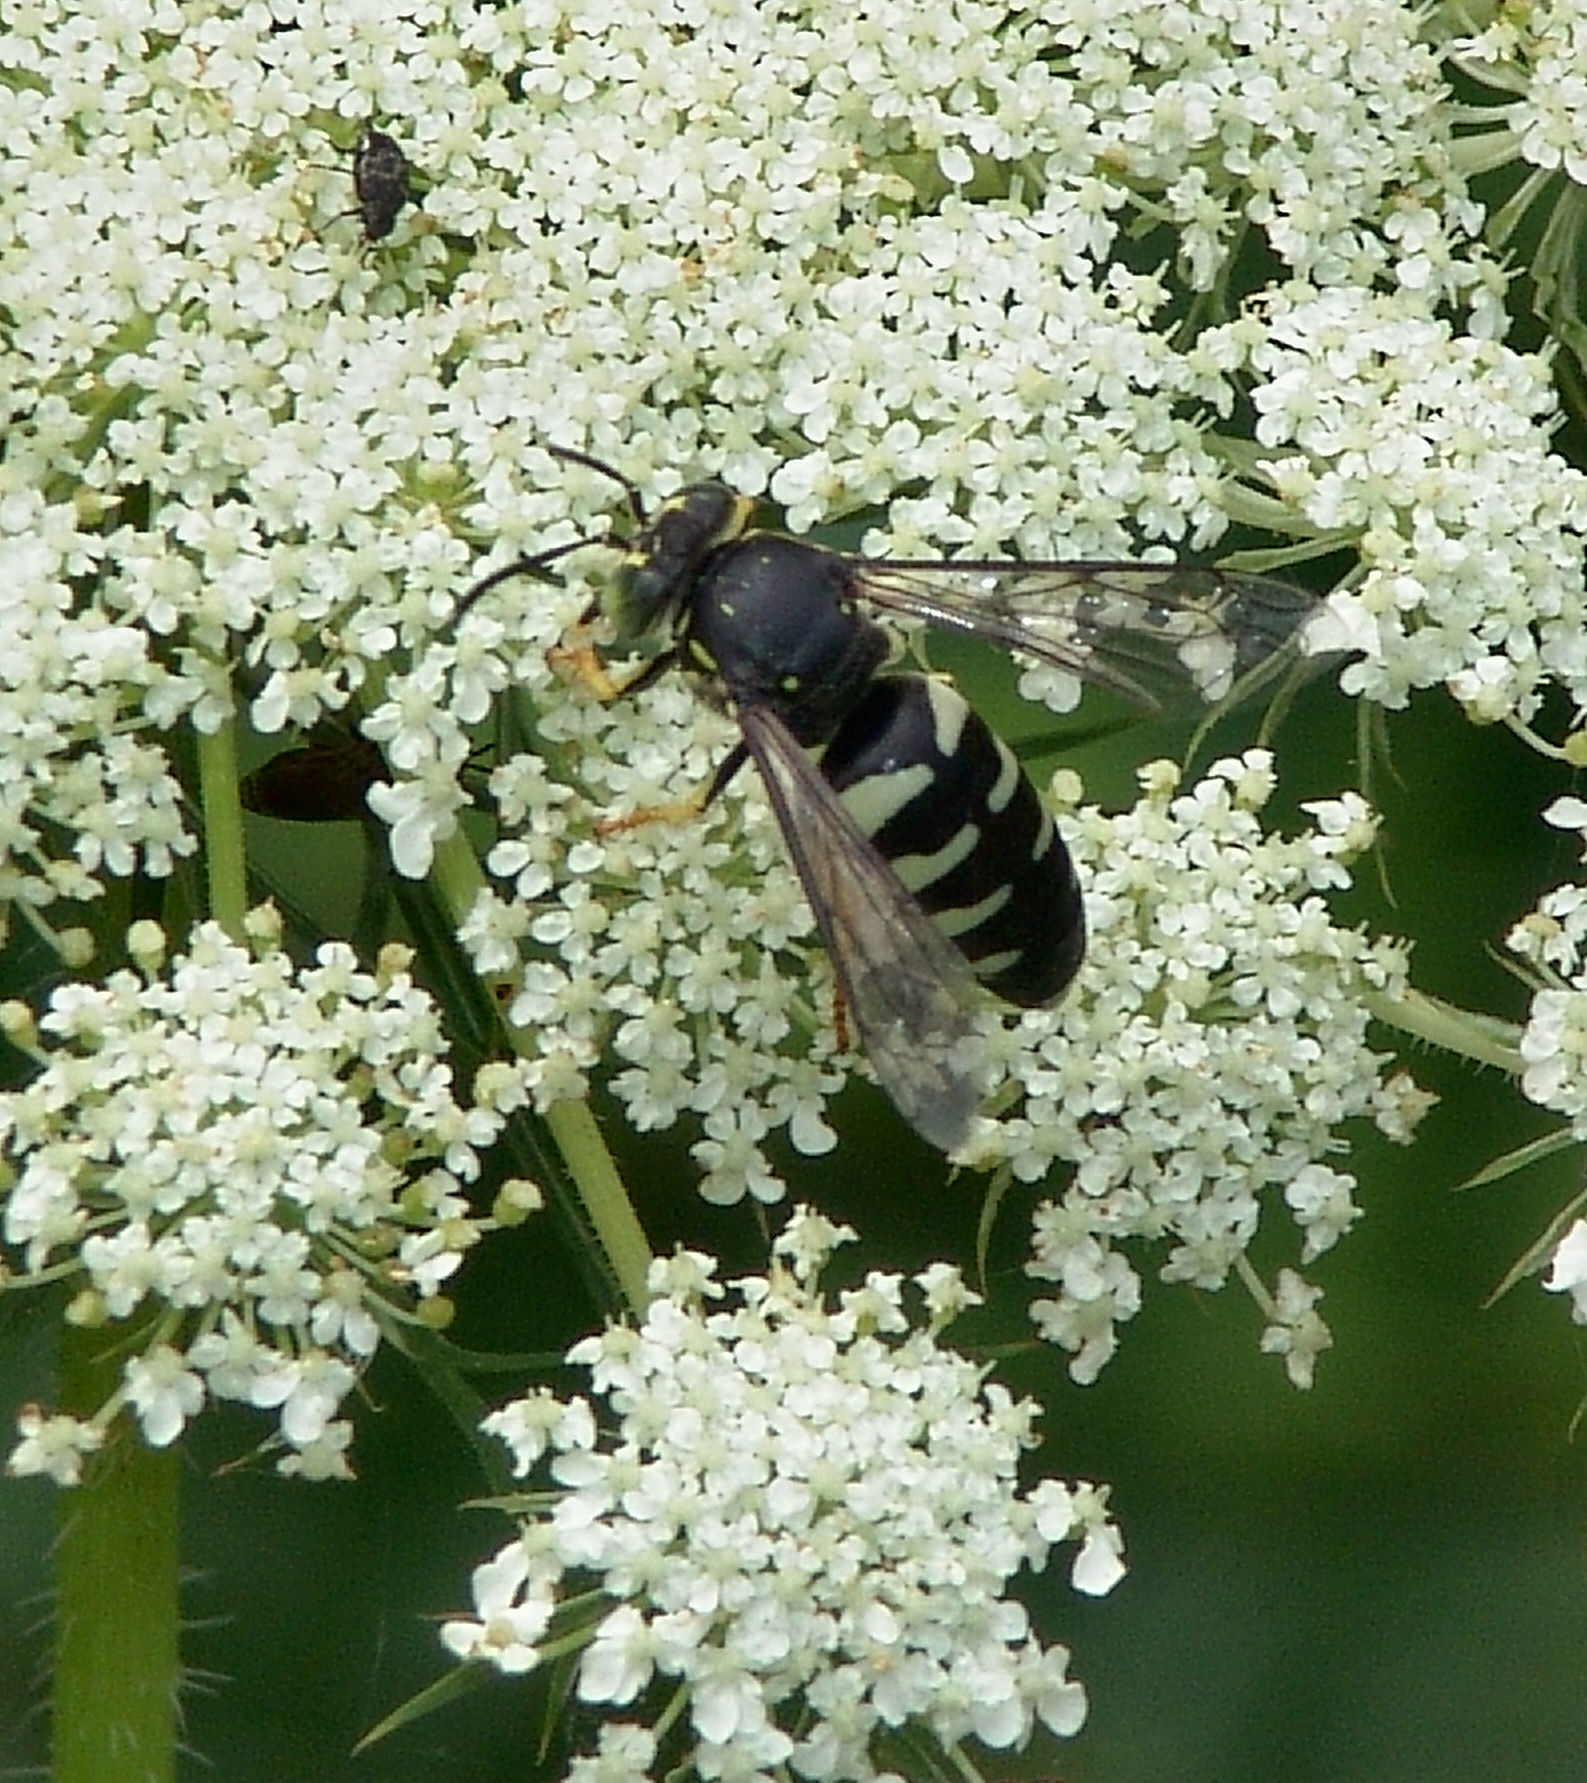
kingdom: Animalia
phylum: Arthropoda
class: Insecta
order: Hymenoptera
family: Crabronidae
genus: Bicyrtes
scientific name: Bicyrtes quadrifasciatus
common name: Four-banded stink bug hunter wasp
